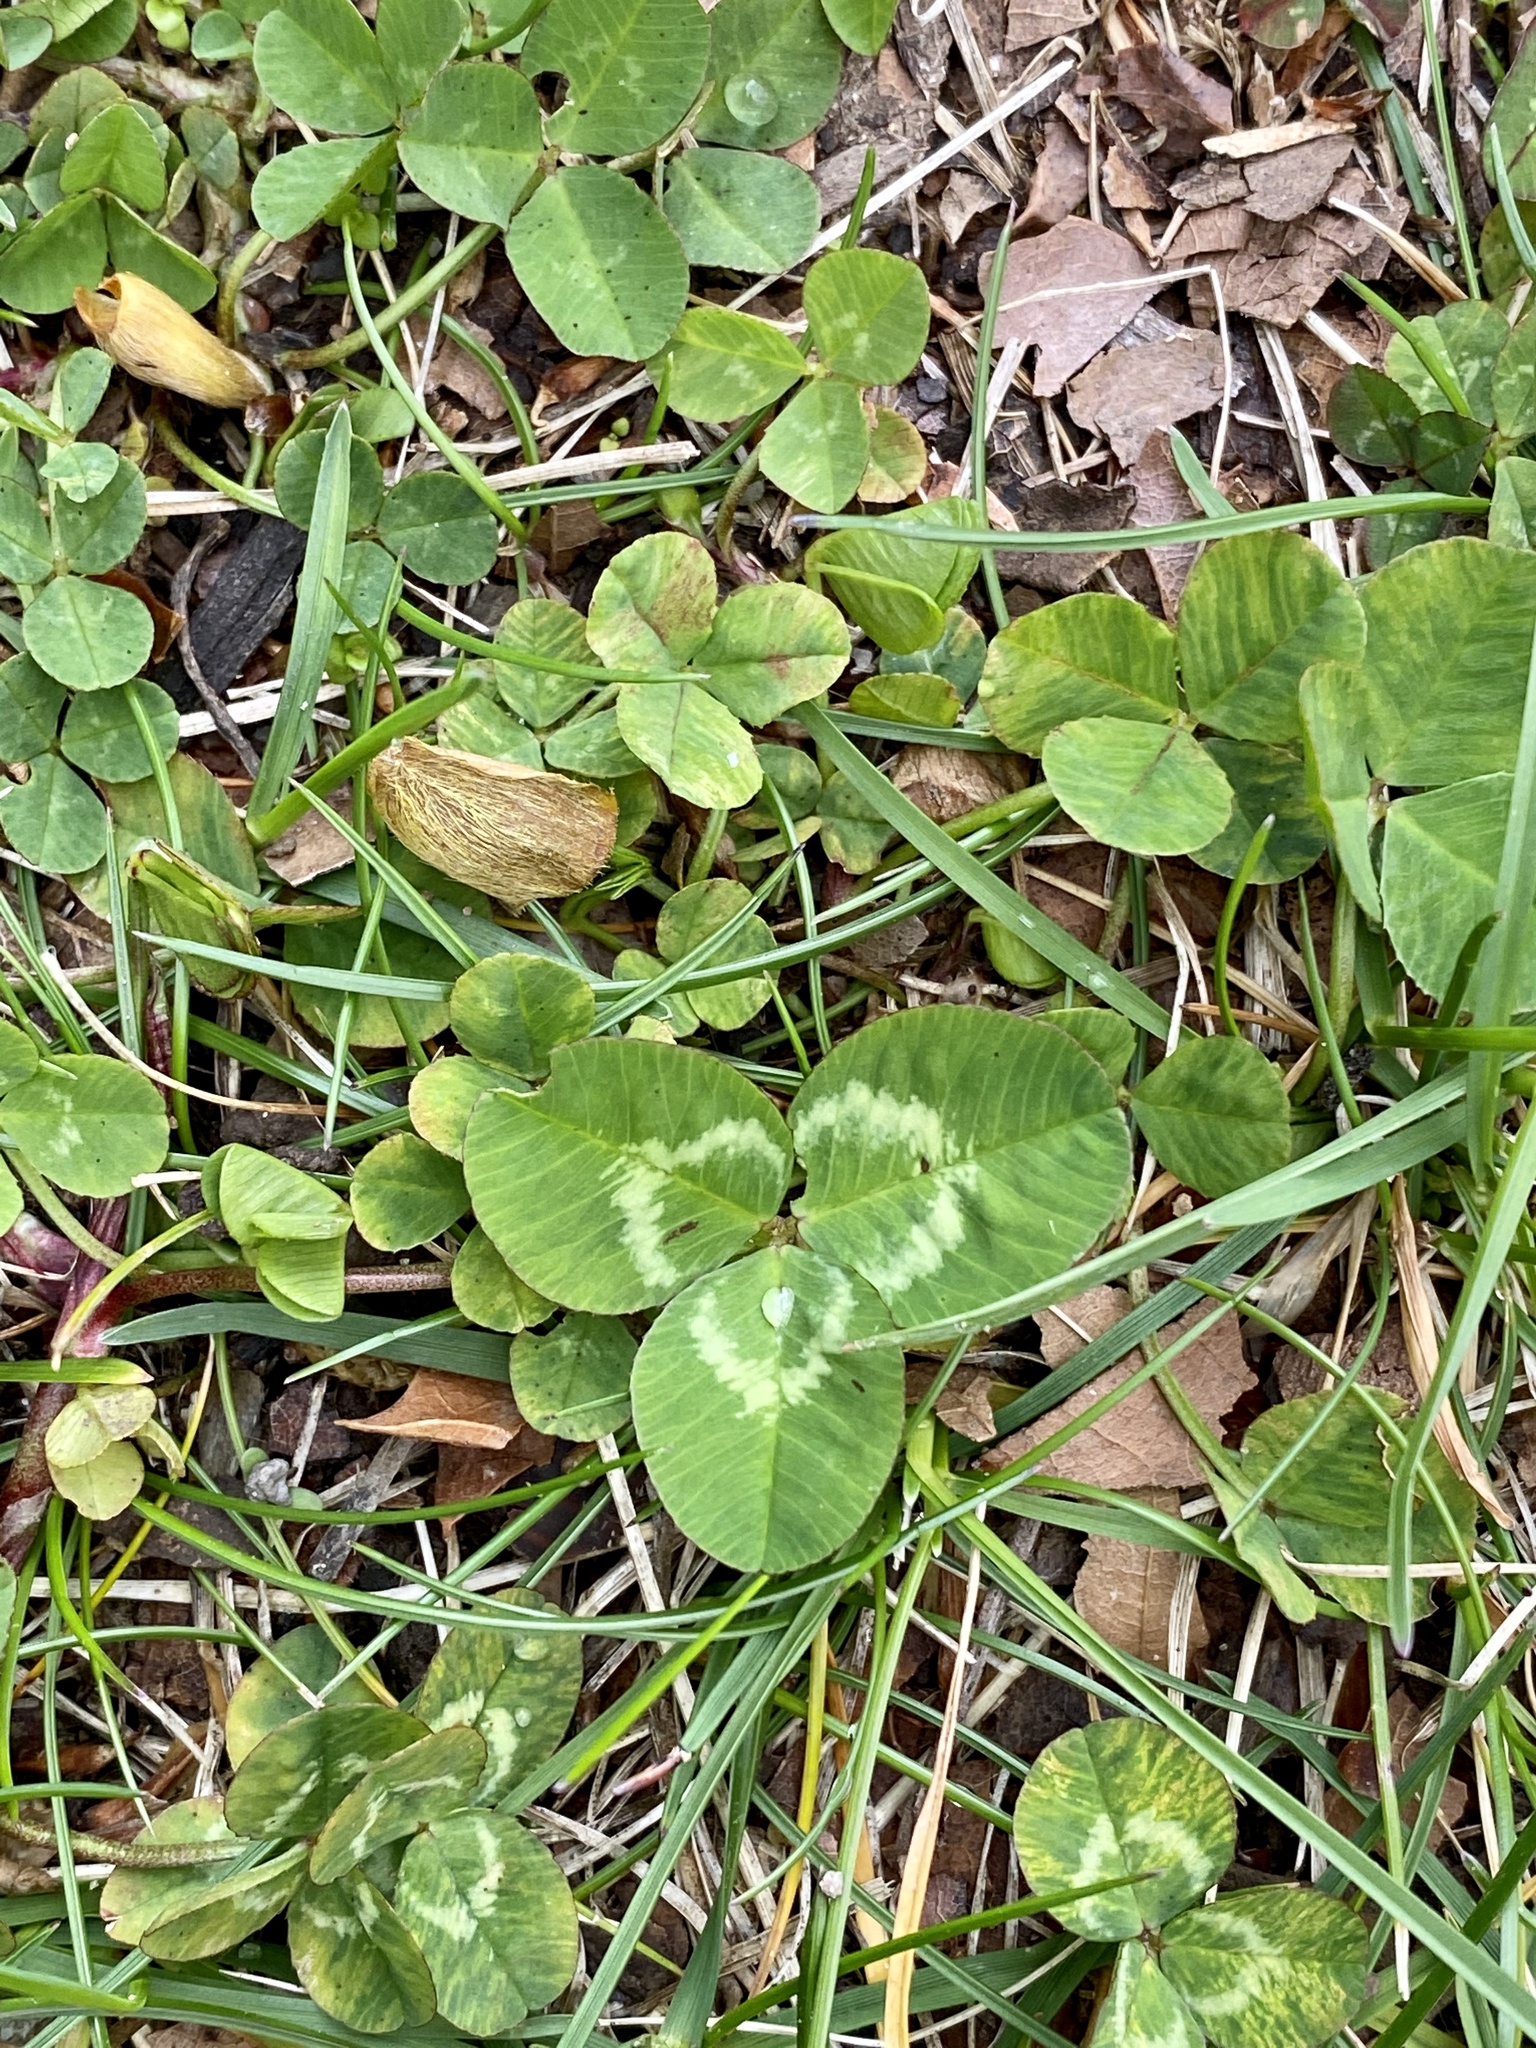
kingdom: Plantae
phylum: Tracheophyta
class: Magnoliopsida
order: Fabales
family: Fabaceae
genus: Trifolium
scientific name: Trifolium repens
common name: White clover
